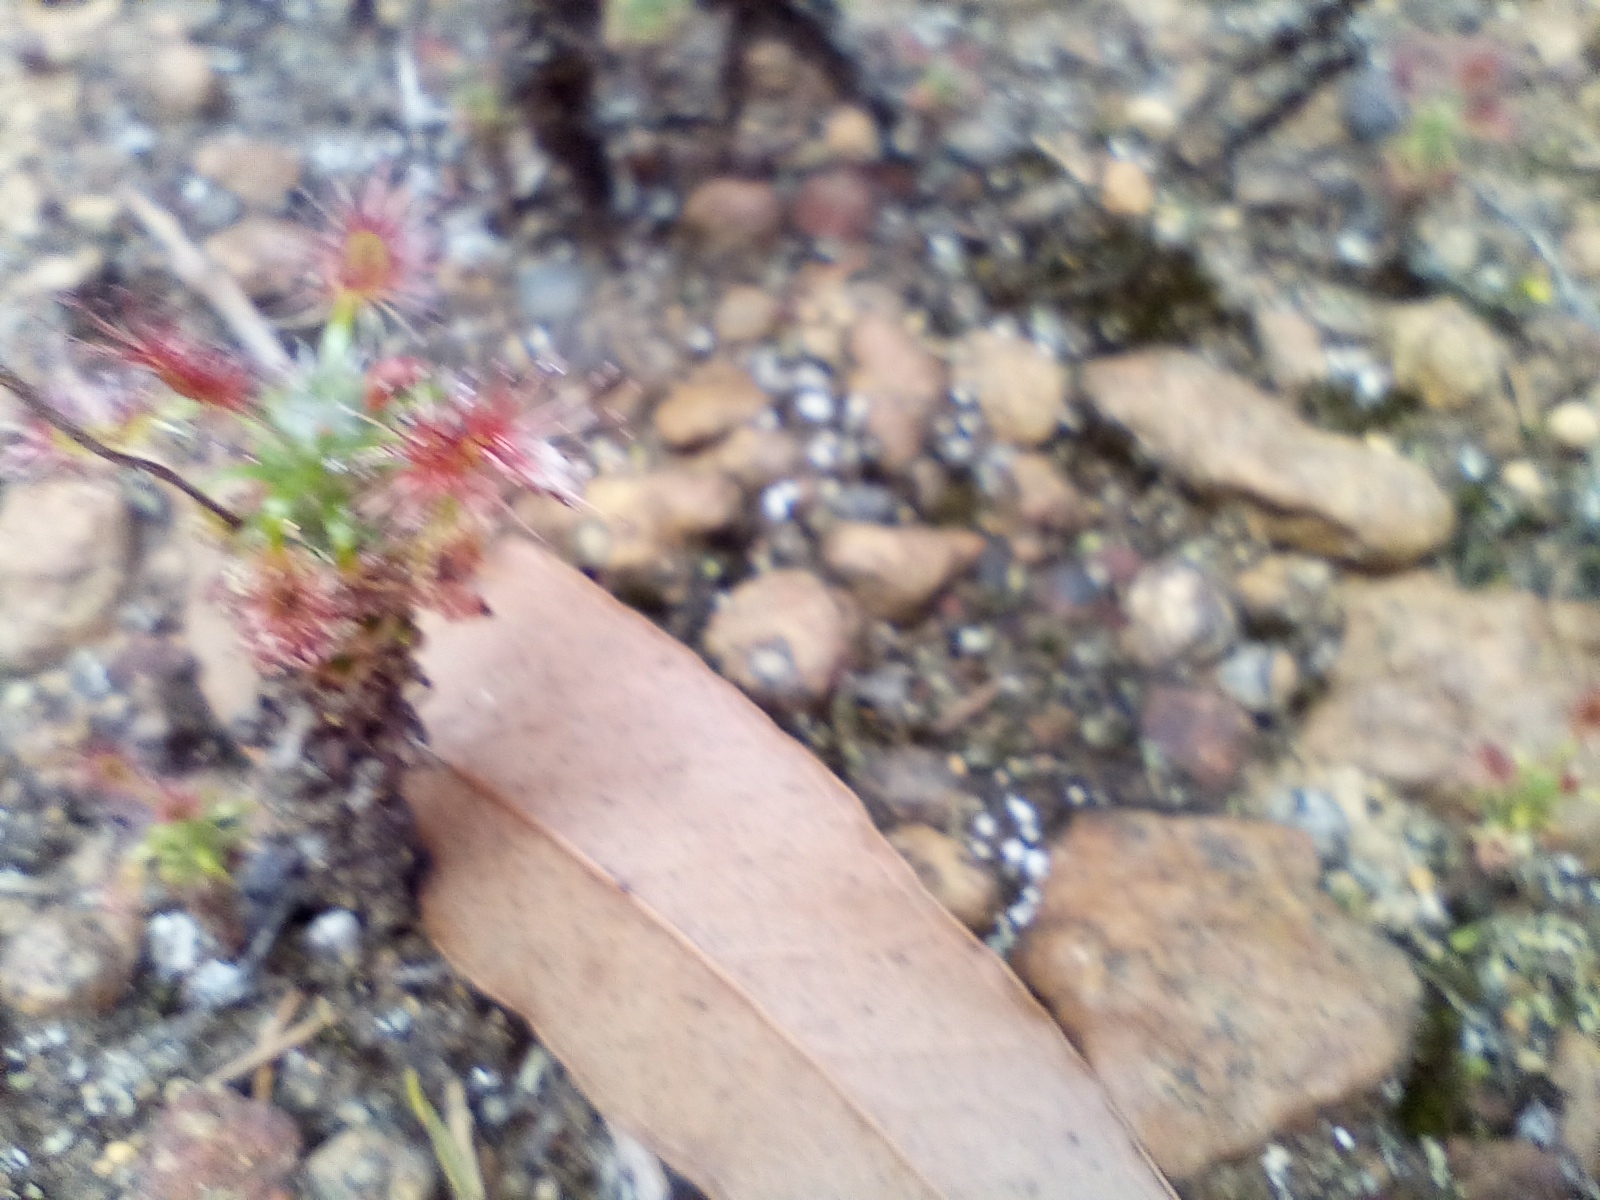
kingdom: Plantae
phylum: Tracheophyta
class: Magnoliopsida
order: Caryophyllales
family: Droseraceae
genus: Drosera
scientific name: Drosera lasiantha
